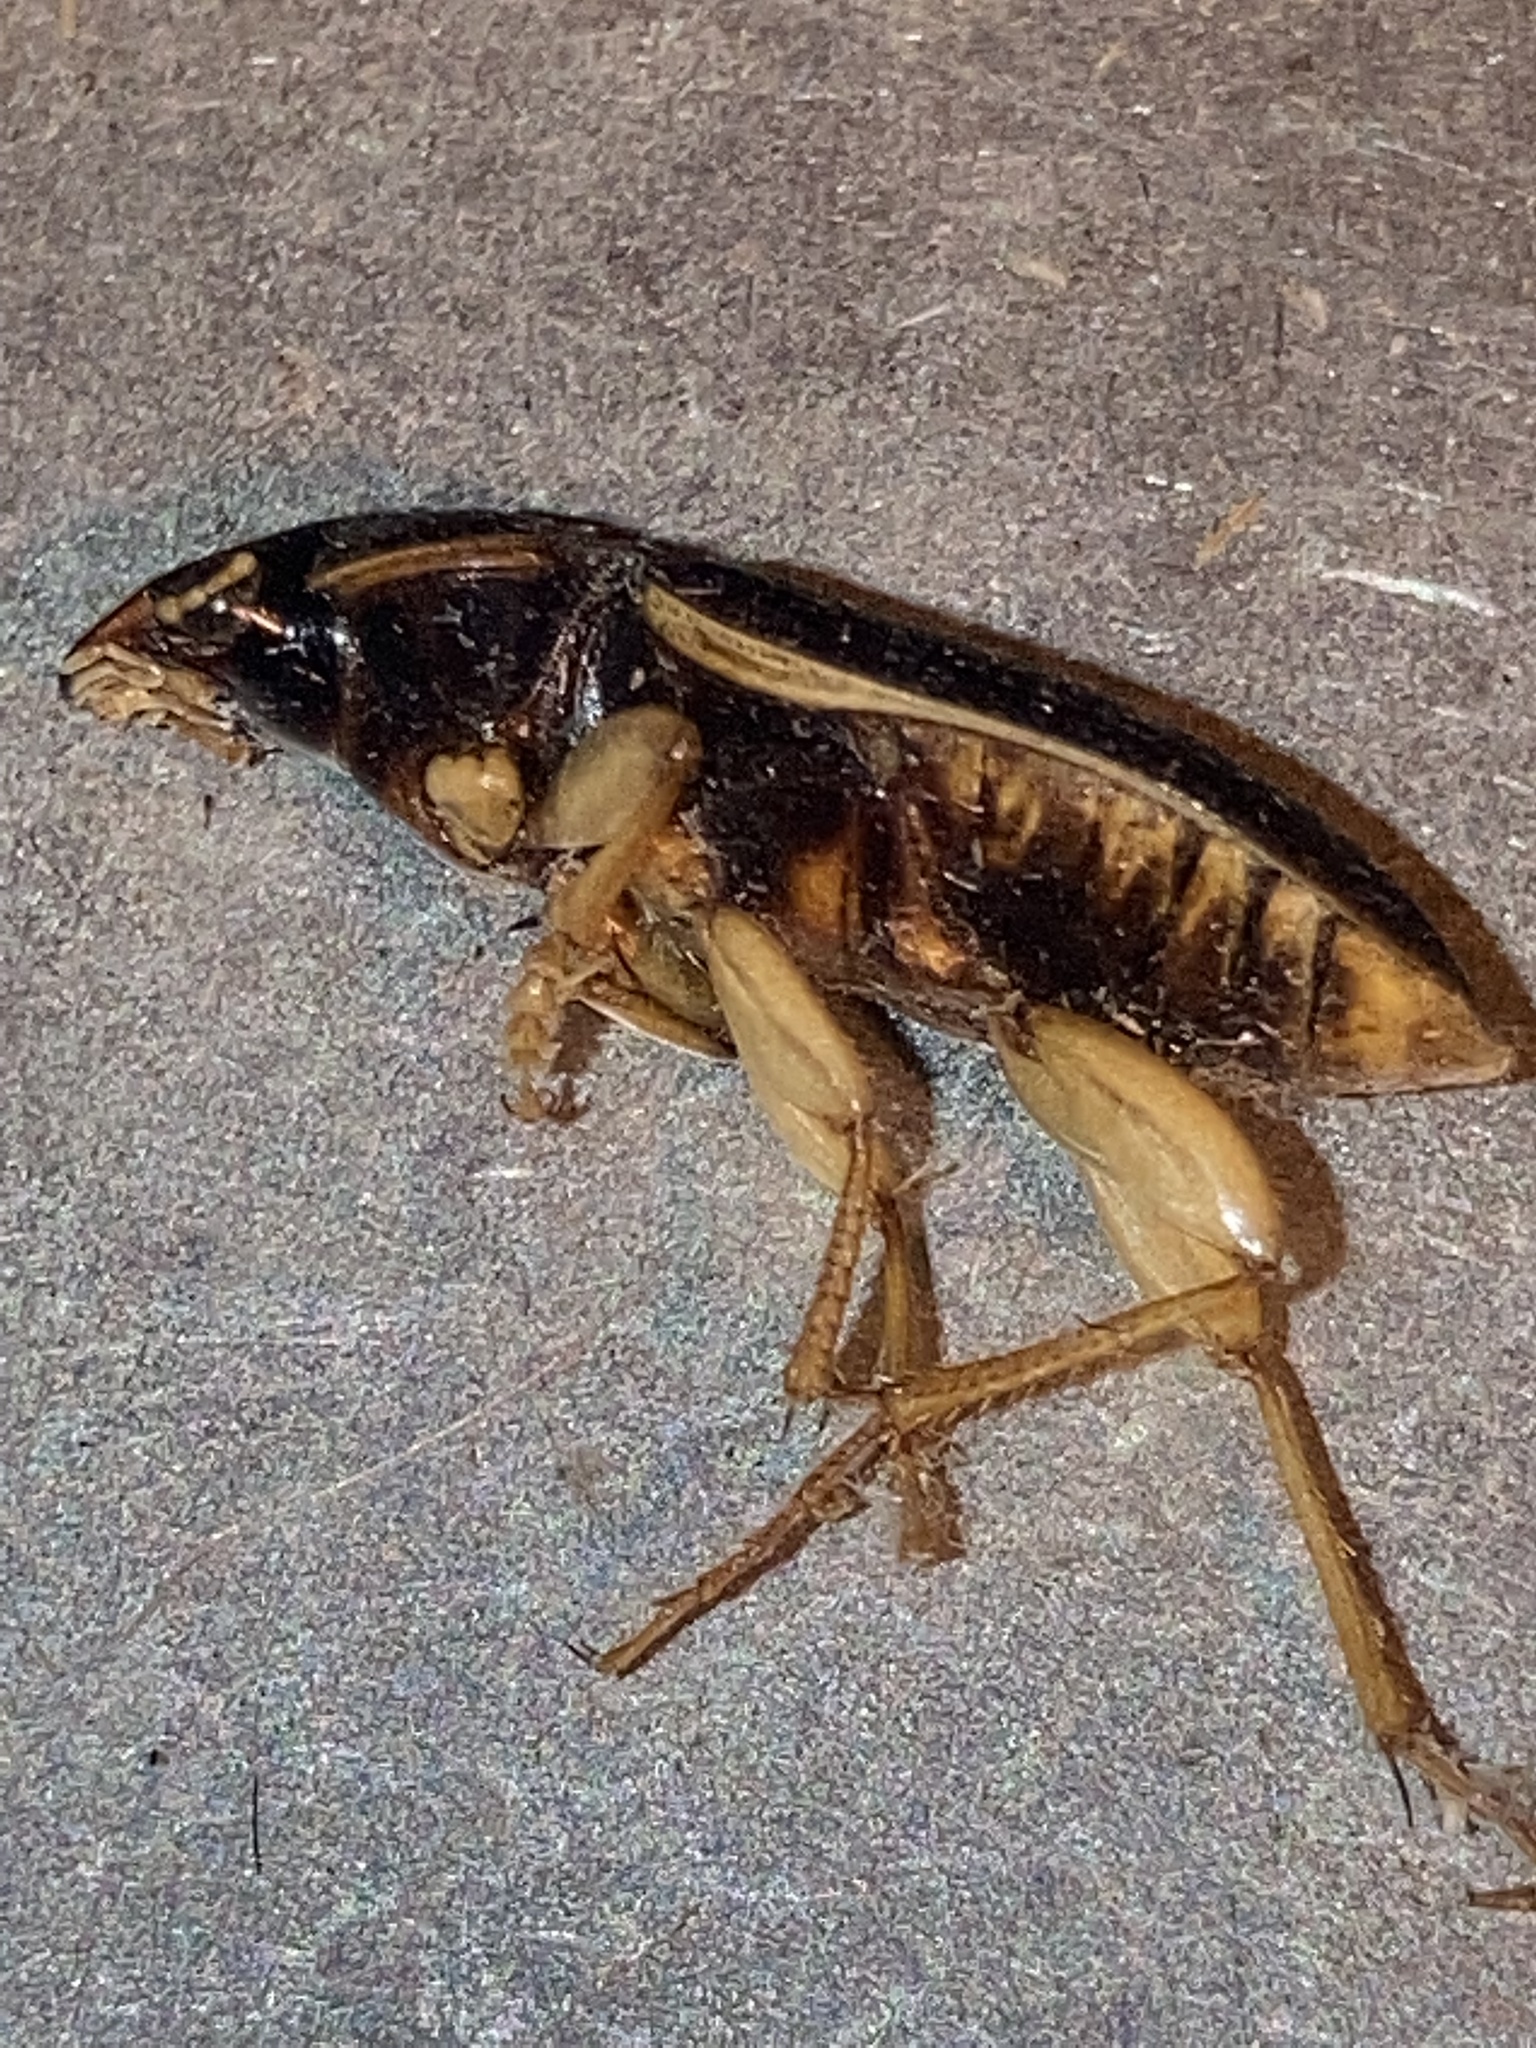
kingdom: Animalia
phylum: Arthropoda
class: Insecta
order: Coleoptera
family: Carabidae
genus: Harpalus
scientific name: Harpalus pensylvanicus
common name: Pennsylvania dingy ground beetle
